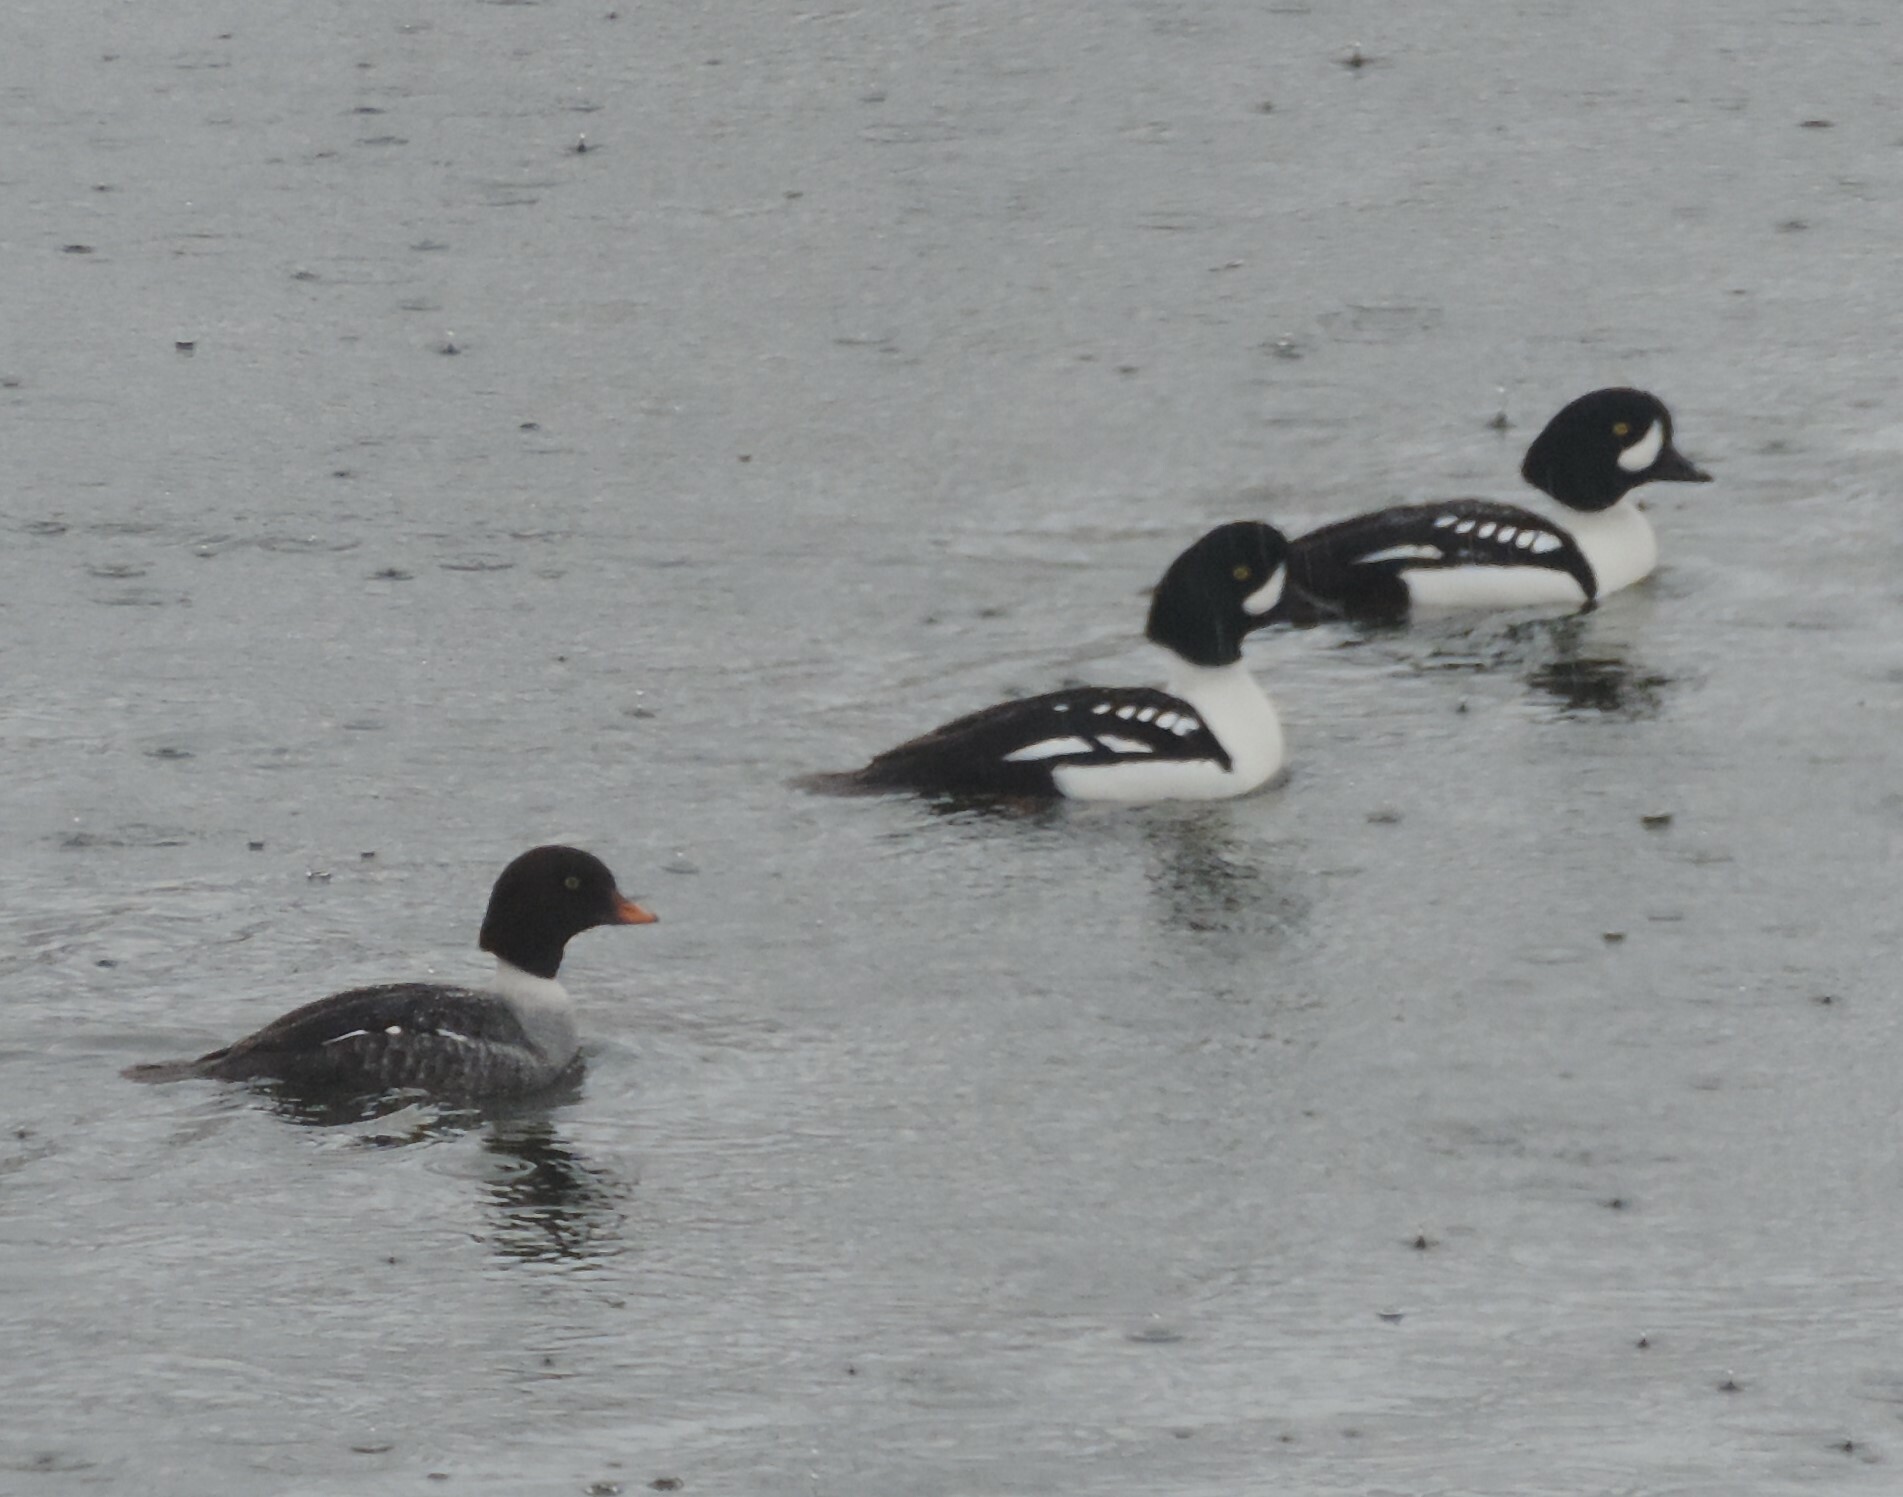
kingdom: Animalia
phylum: Chordata
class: Aves
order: Anseriformes
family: Anatidae
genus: Bucephala
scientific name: Bucephala islandica
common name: Barrow's goldeneye
